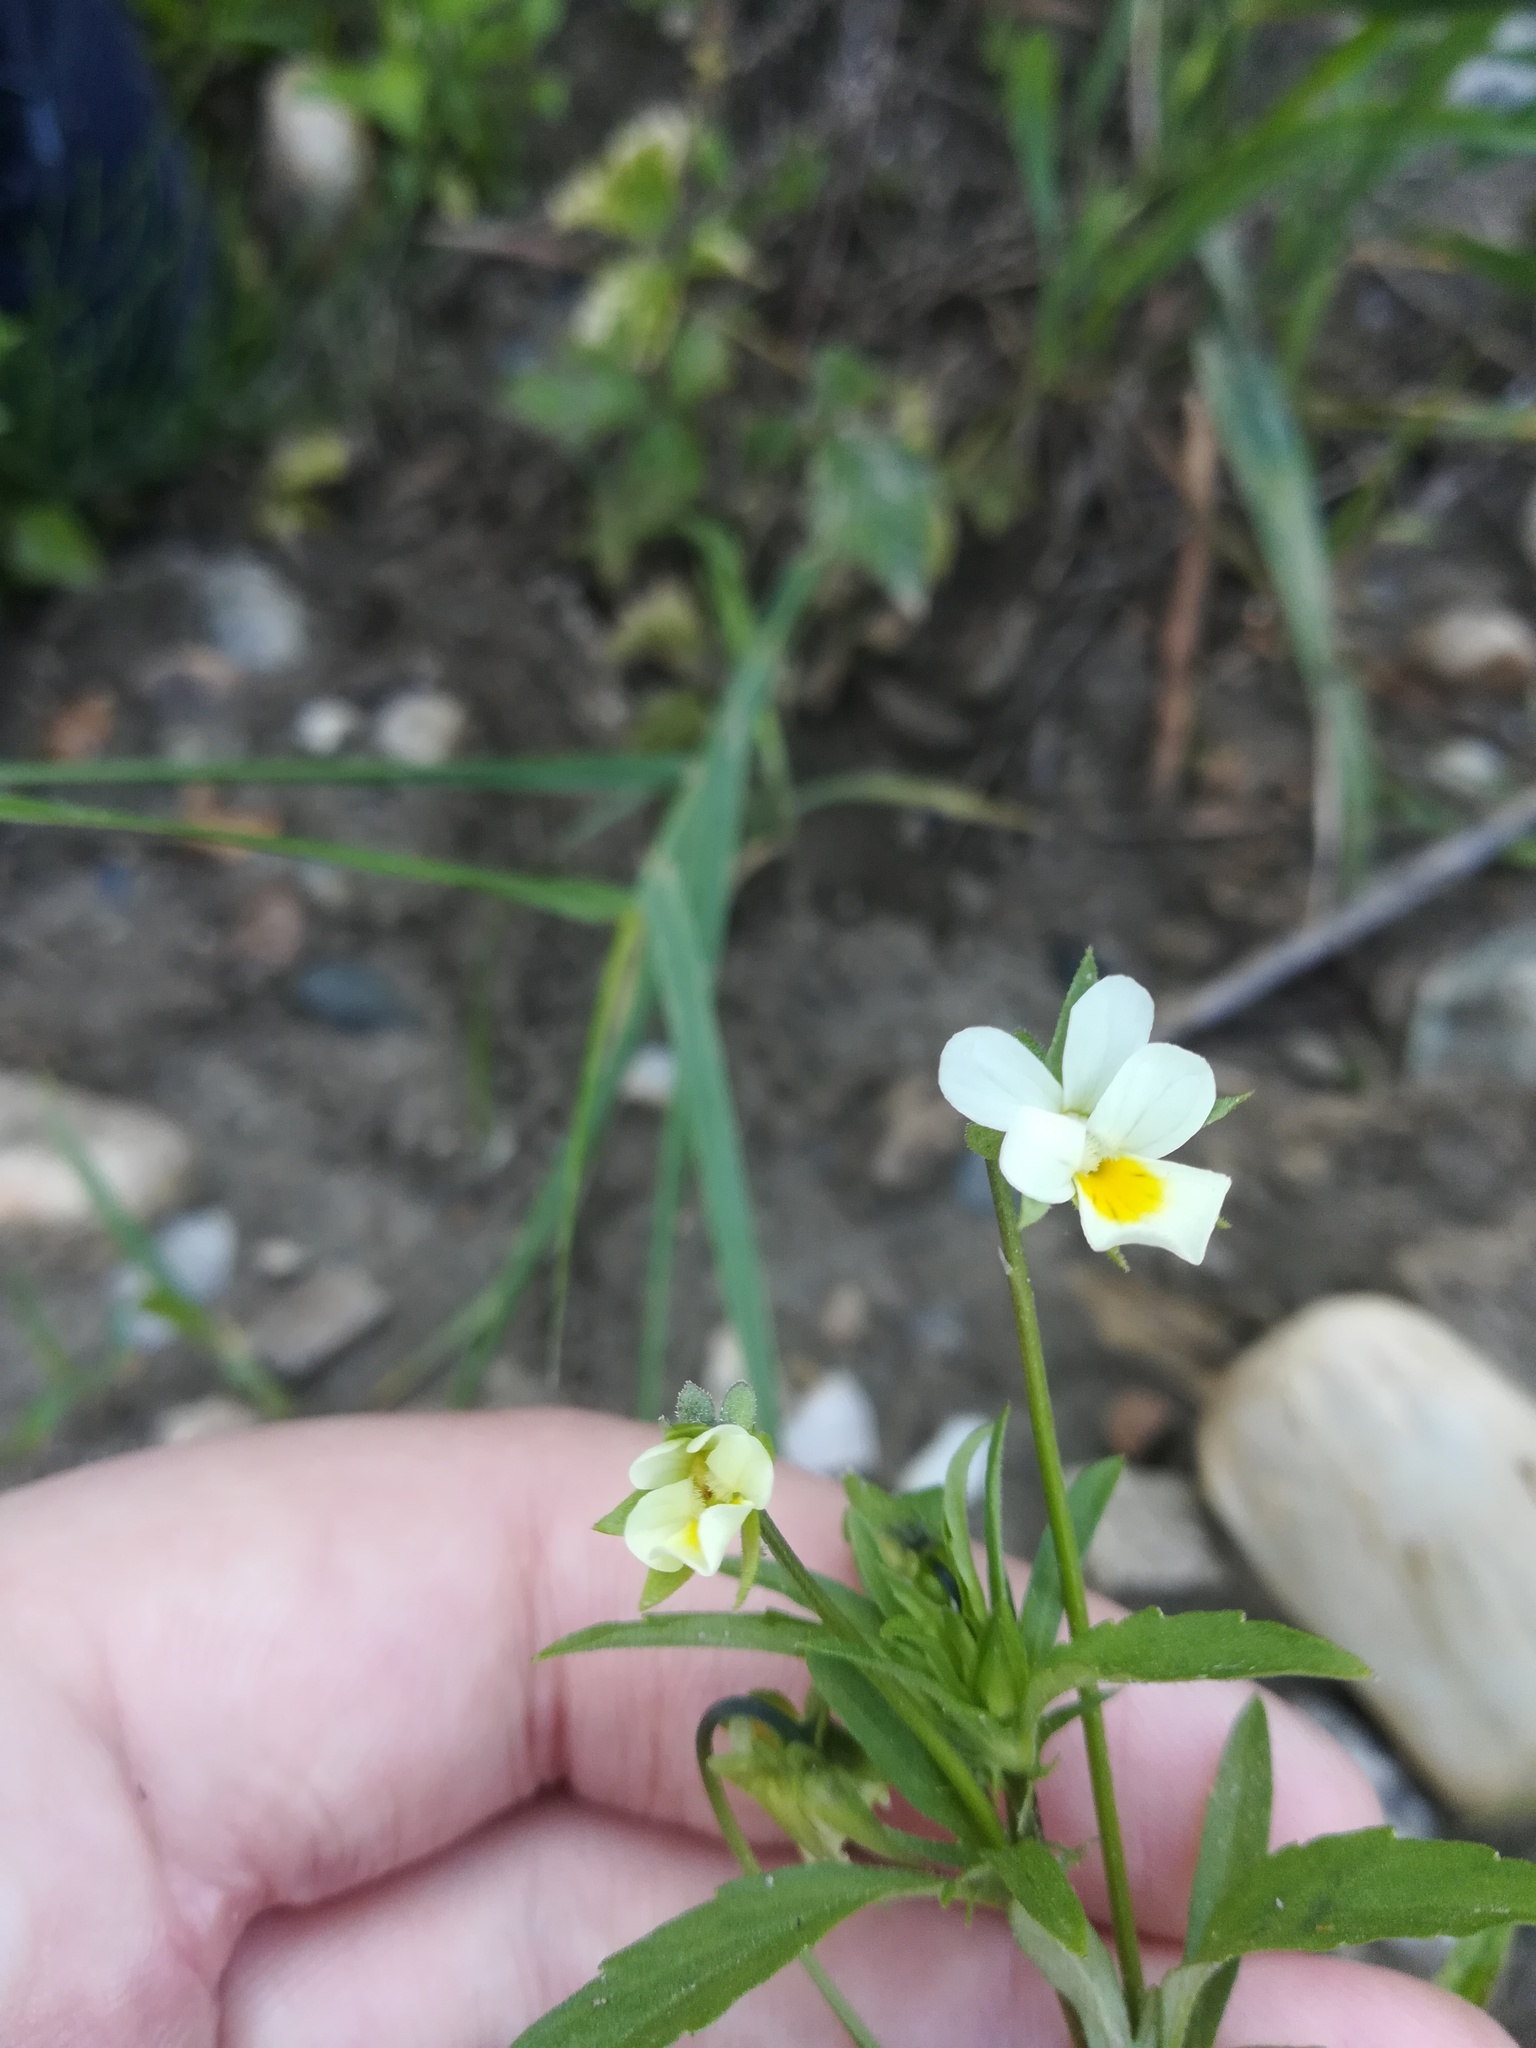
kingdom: Plantae
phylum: Tracheophyta
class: Magnoliopsida
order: Malpighiales
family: Violaceae
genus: Viola
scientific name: Viola arvensis
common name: Field pansy
